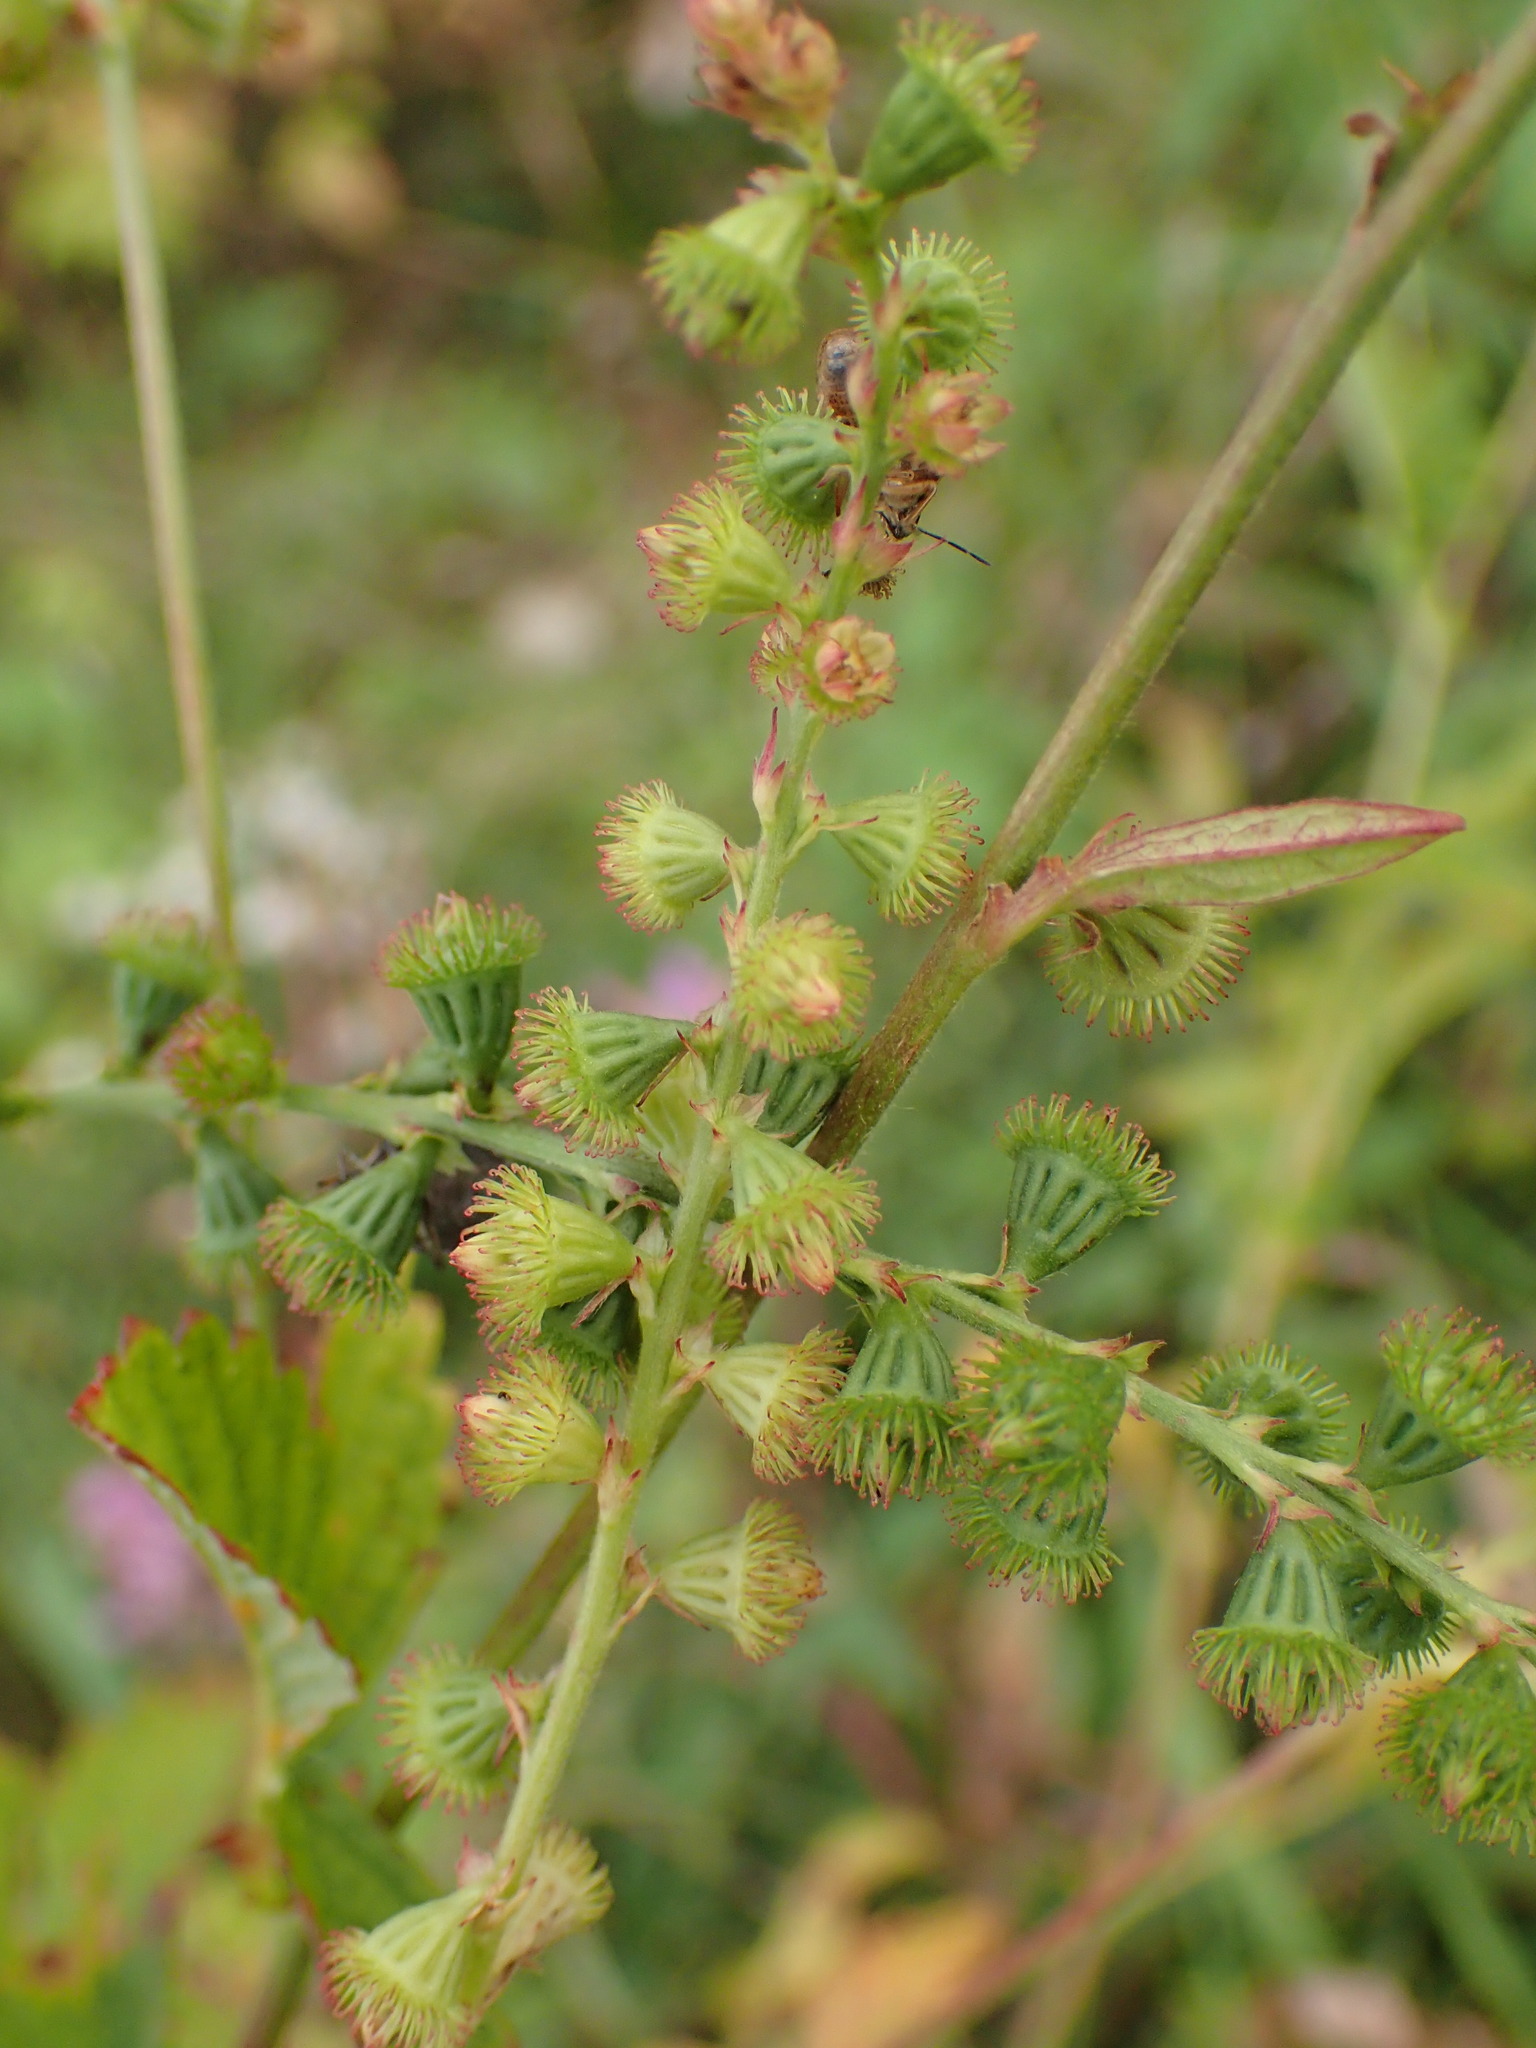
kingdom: Plantae
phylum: Tracheophyta
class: Magnoliopsida
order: Rosales
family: Rosaceae
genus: Agrimonia
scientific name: Agrimonia striata
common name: Britton's agrimony
